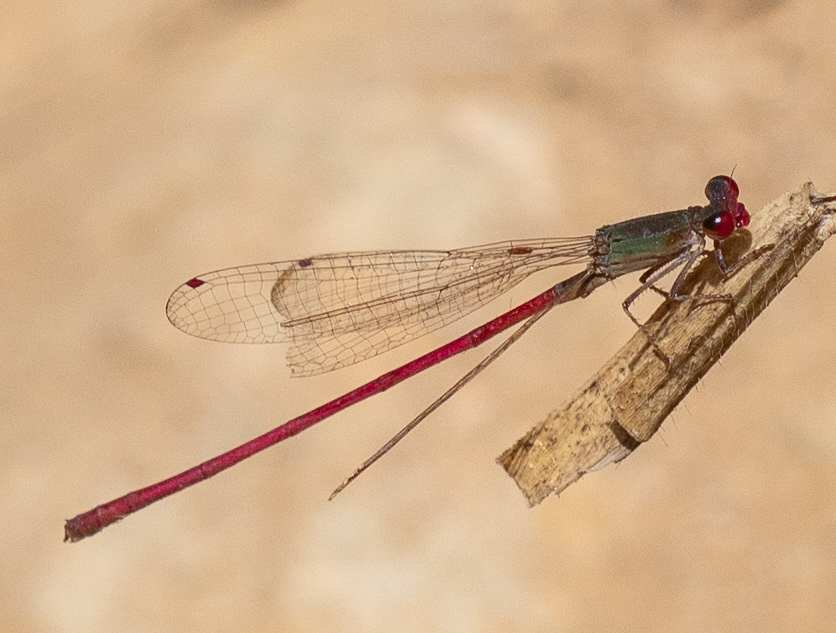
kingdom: Animalia
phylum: Arthropoda
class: Insecta
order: Odonata
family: Coenagrionidae
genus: Oxyagrion
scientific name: Oxyagrion impunctatum
